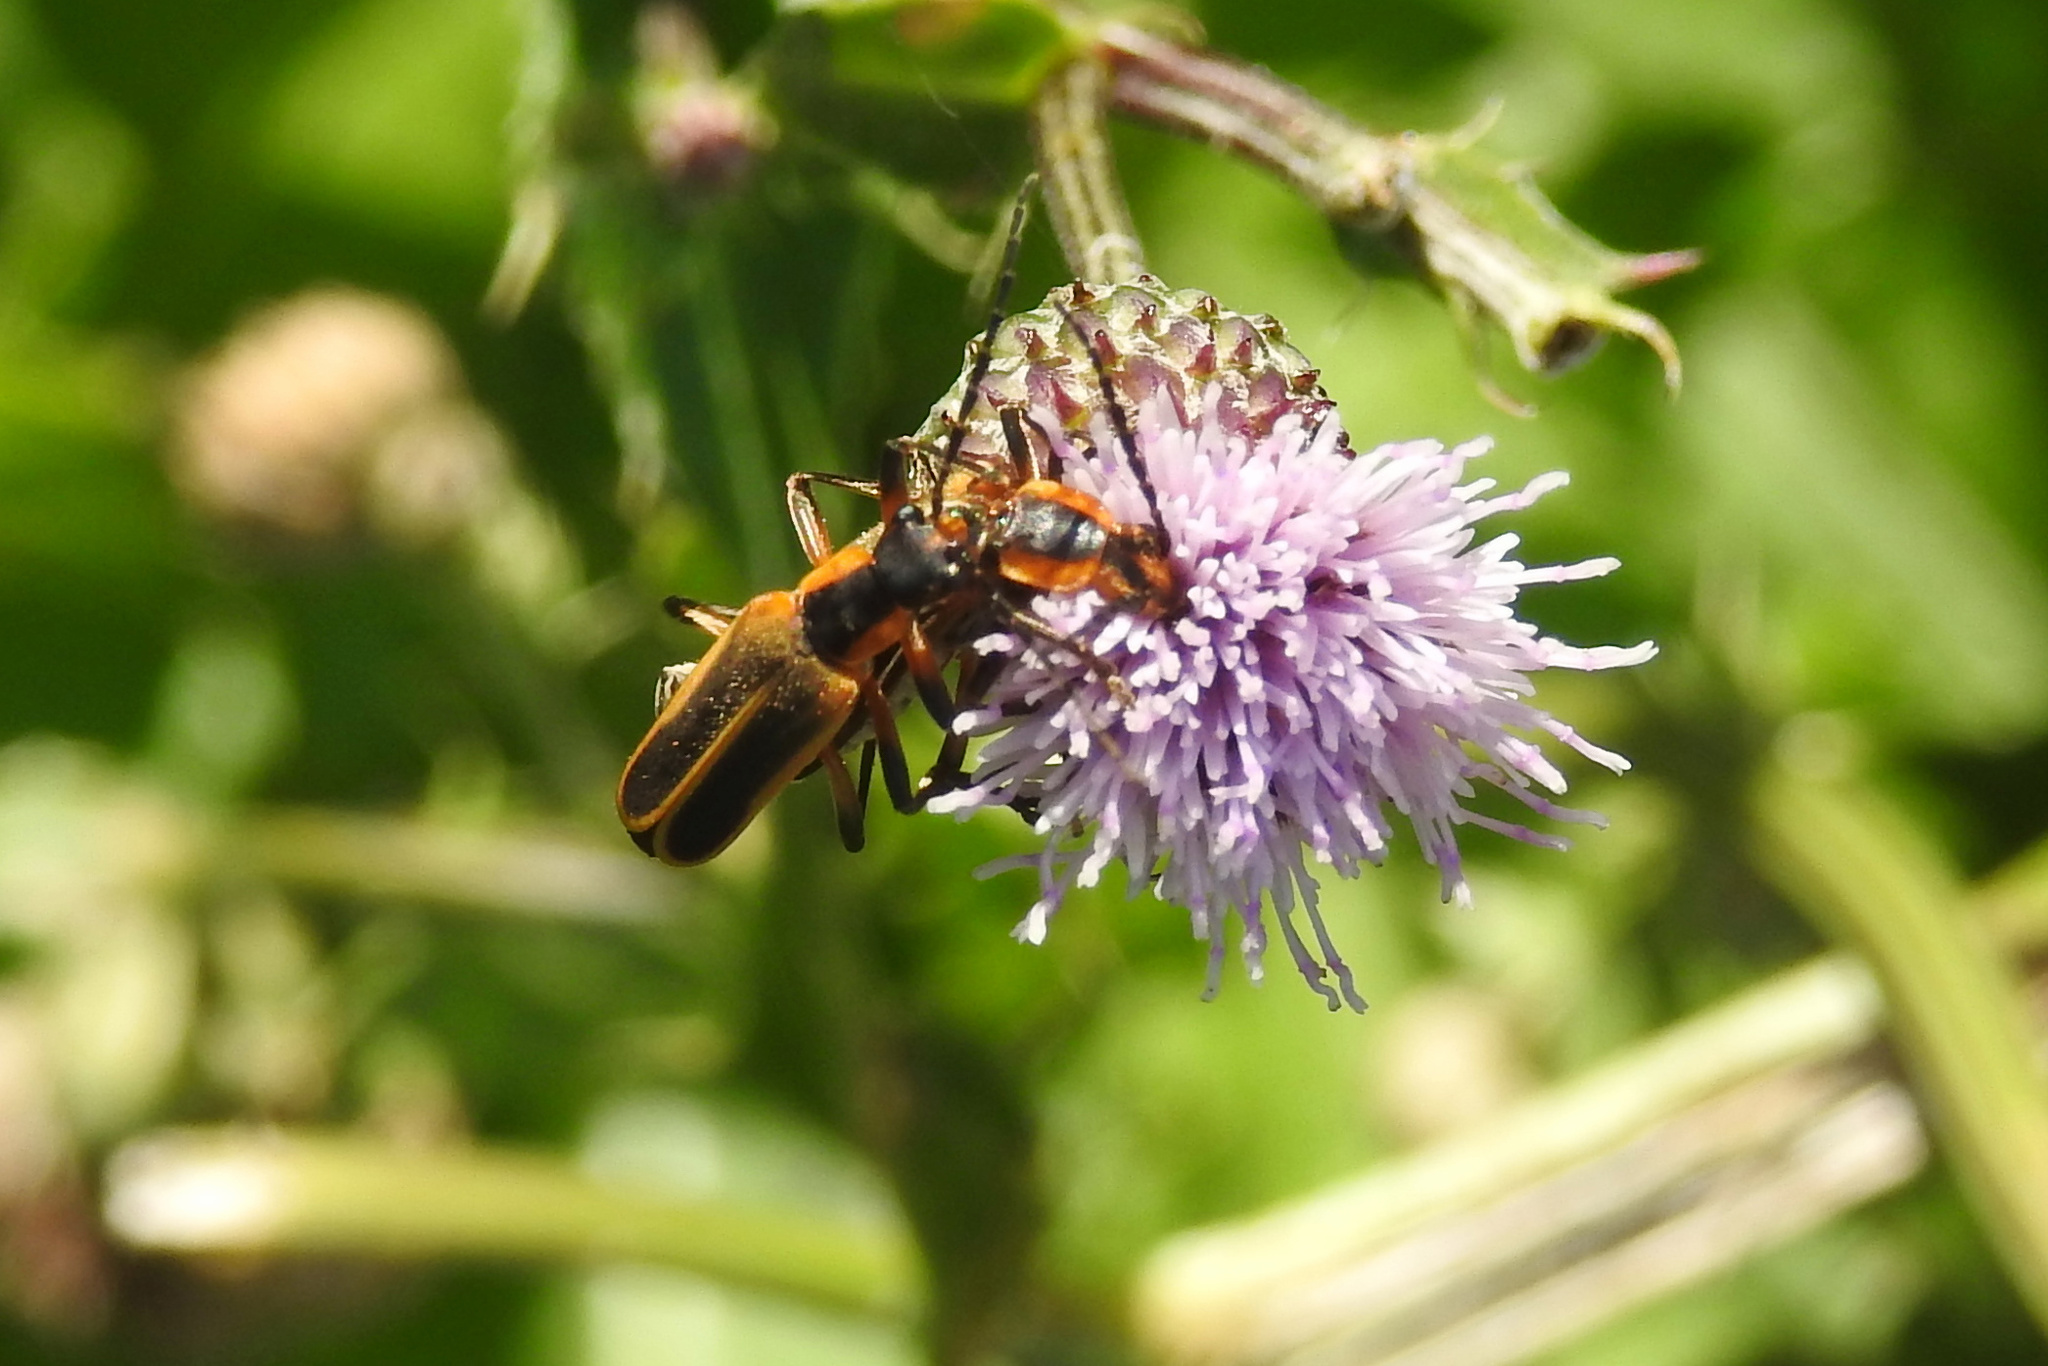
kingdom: Animalia
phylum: Arthropoda
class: Insecta
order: Coleoptera
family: Cantharidae
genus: Chauliognathus
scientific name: Chauliognathus marginatus
